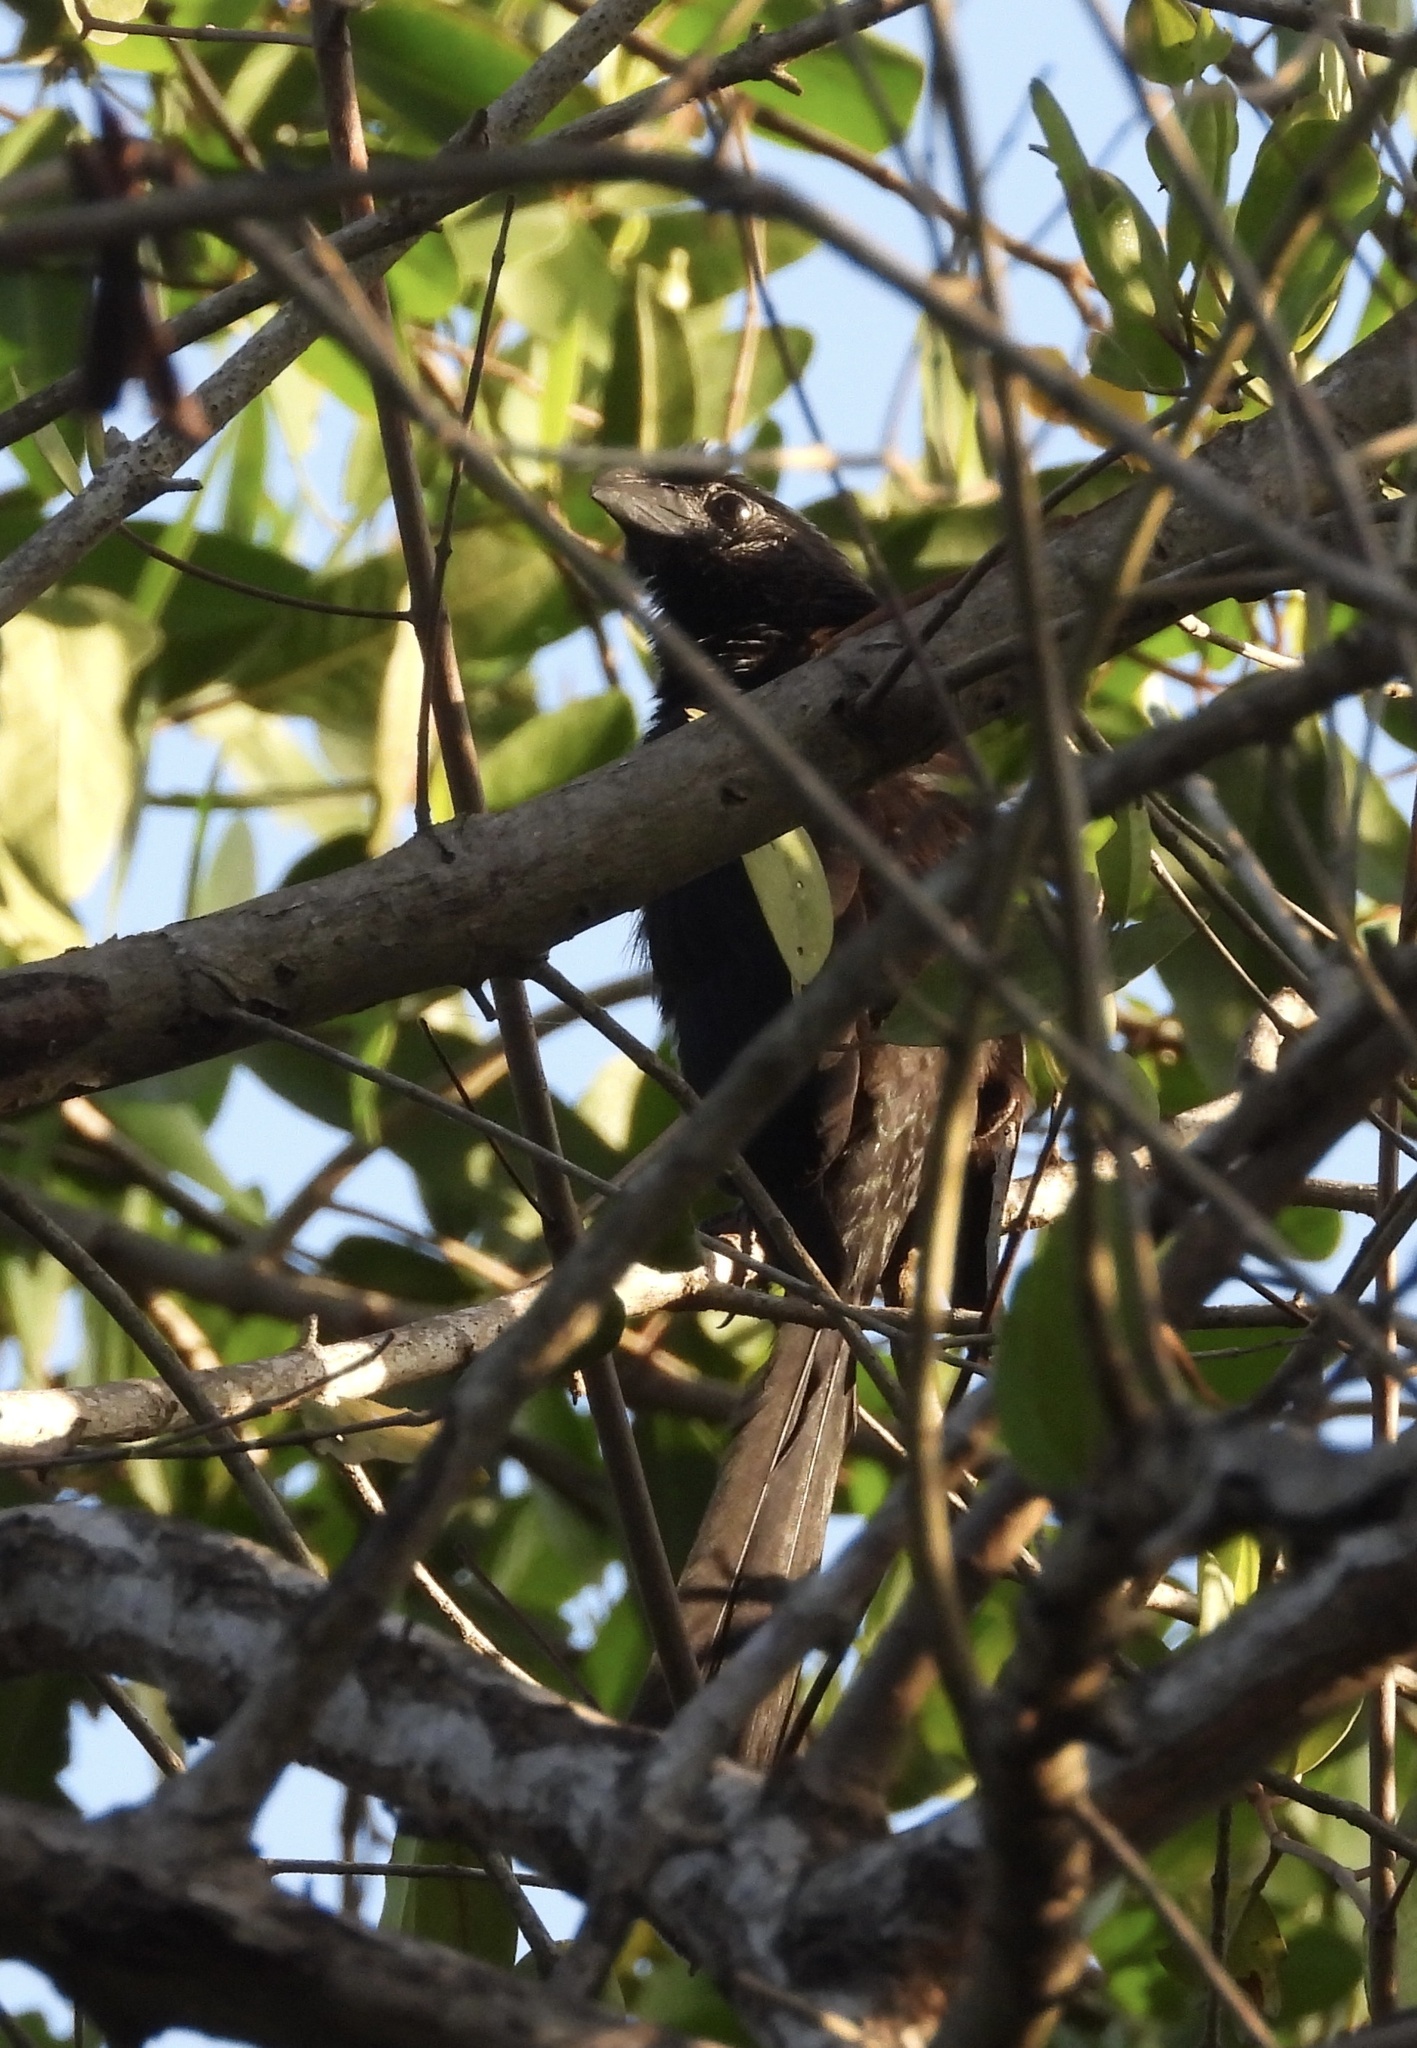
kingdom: Animalia
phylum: Chordata
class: Aves
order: Cuculiformes
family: Cuculidae
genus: Crotophaga
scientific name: Crotophaga sulcirostris
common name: Groove-billed ani
